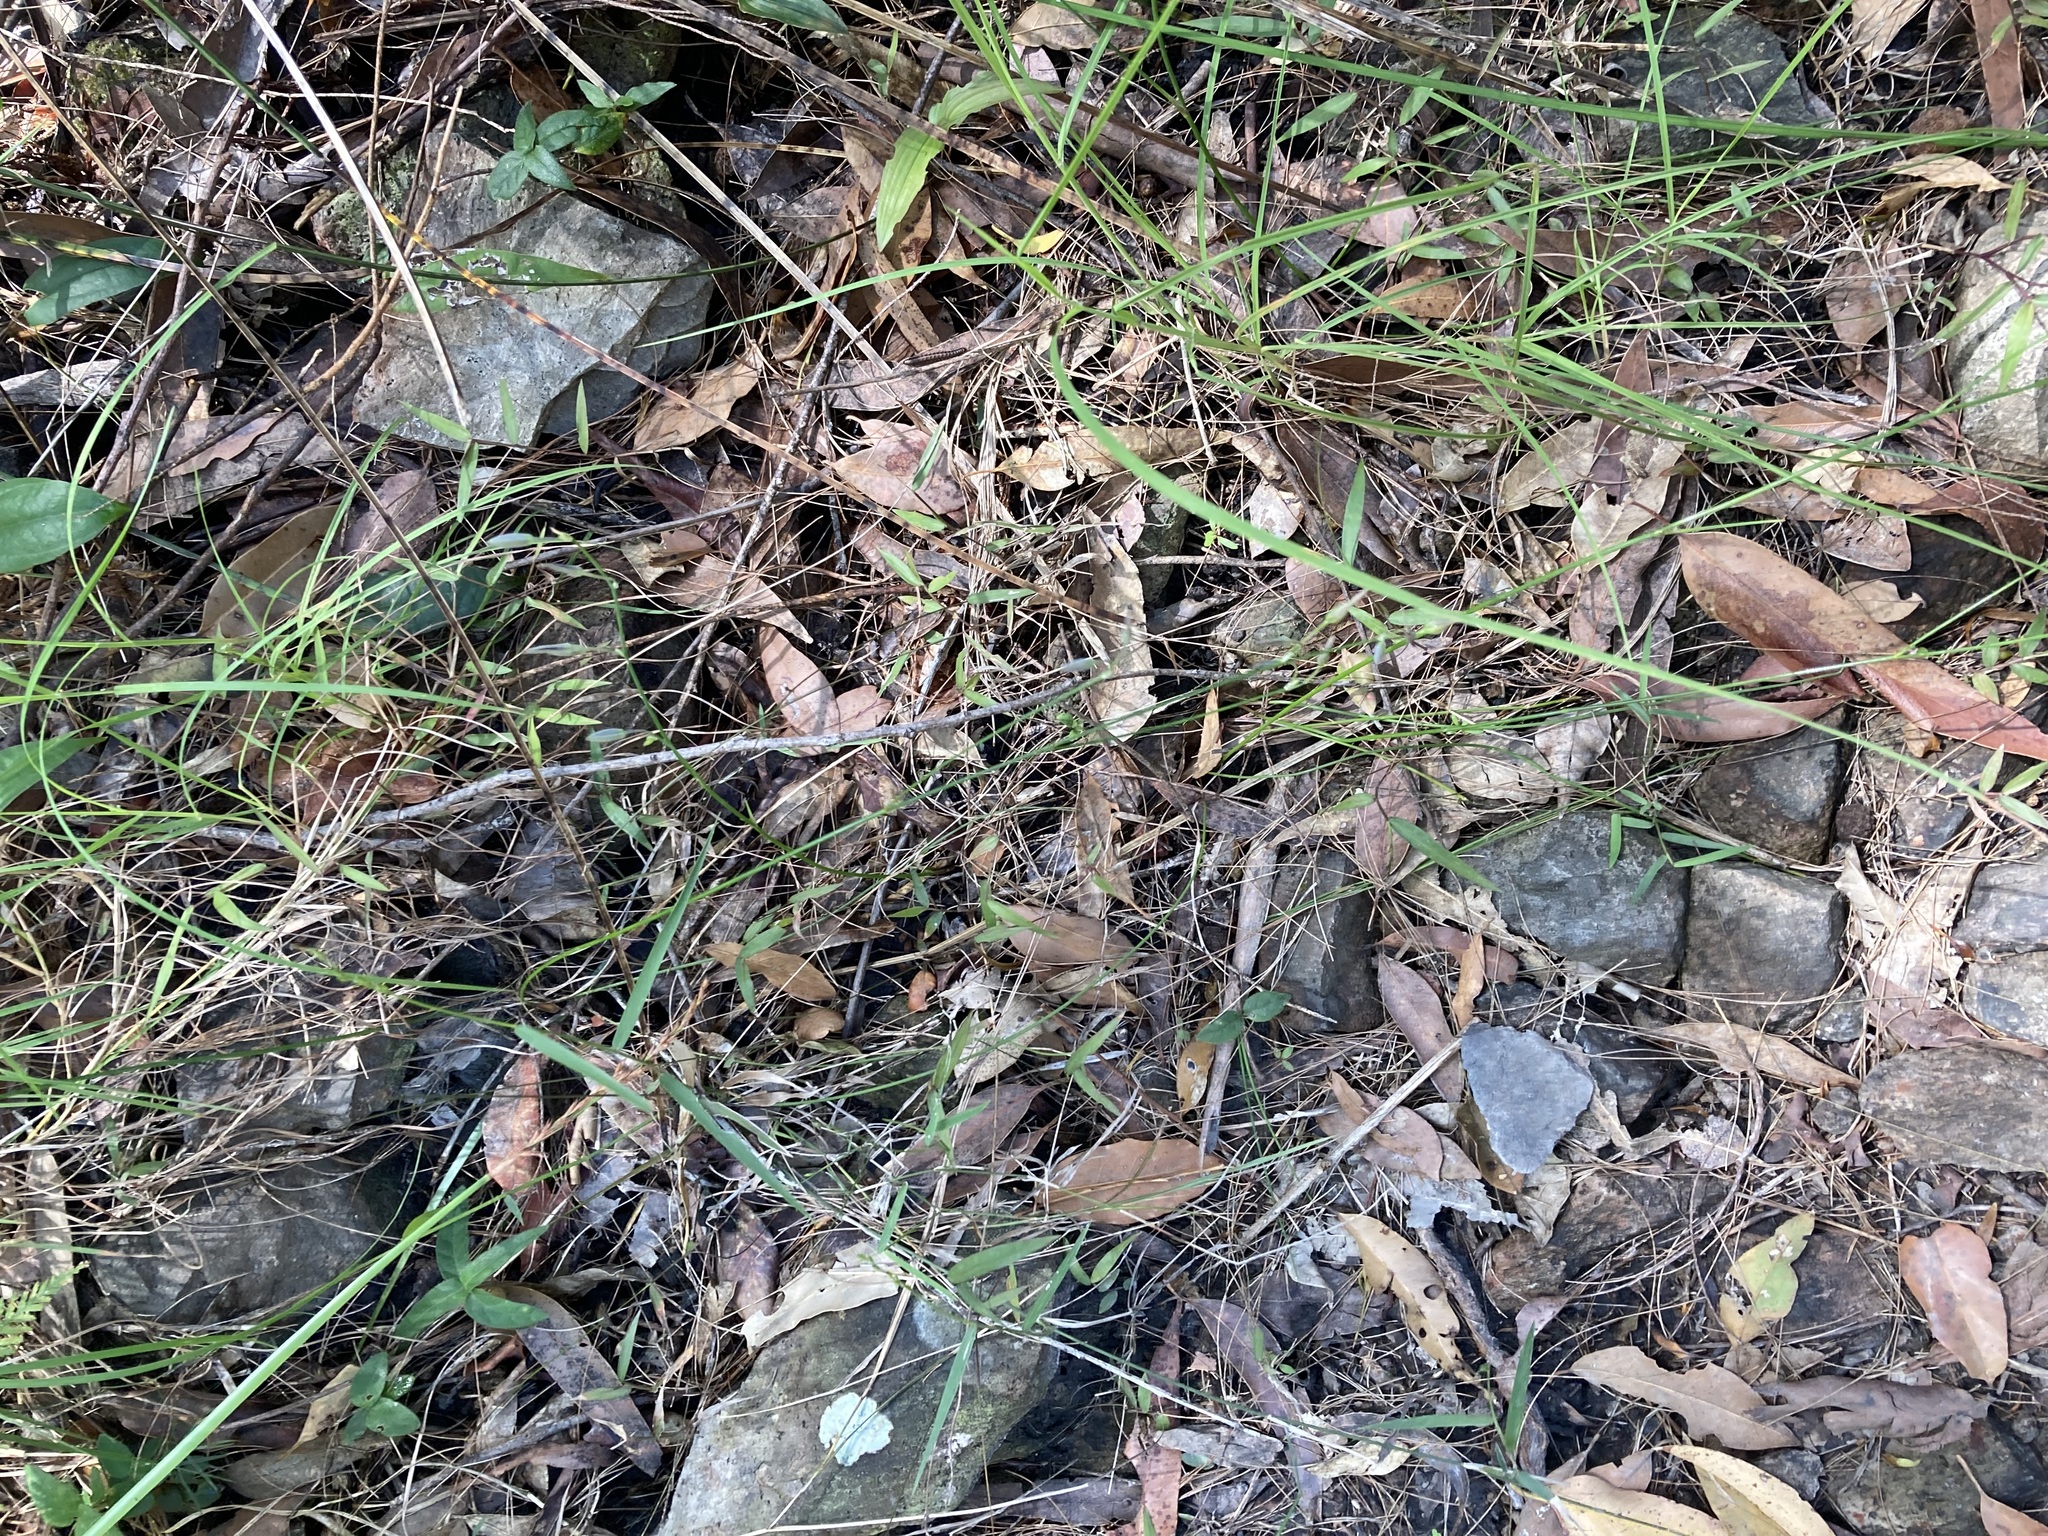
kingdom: Plantae
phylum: Tracheophyta
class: Liliopsida
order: Asparagales
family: Asparagaceae
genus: Thysanotus
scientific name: Thysanotus tuberosus
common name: Common fringed-lily
